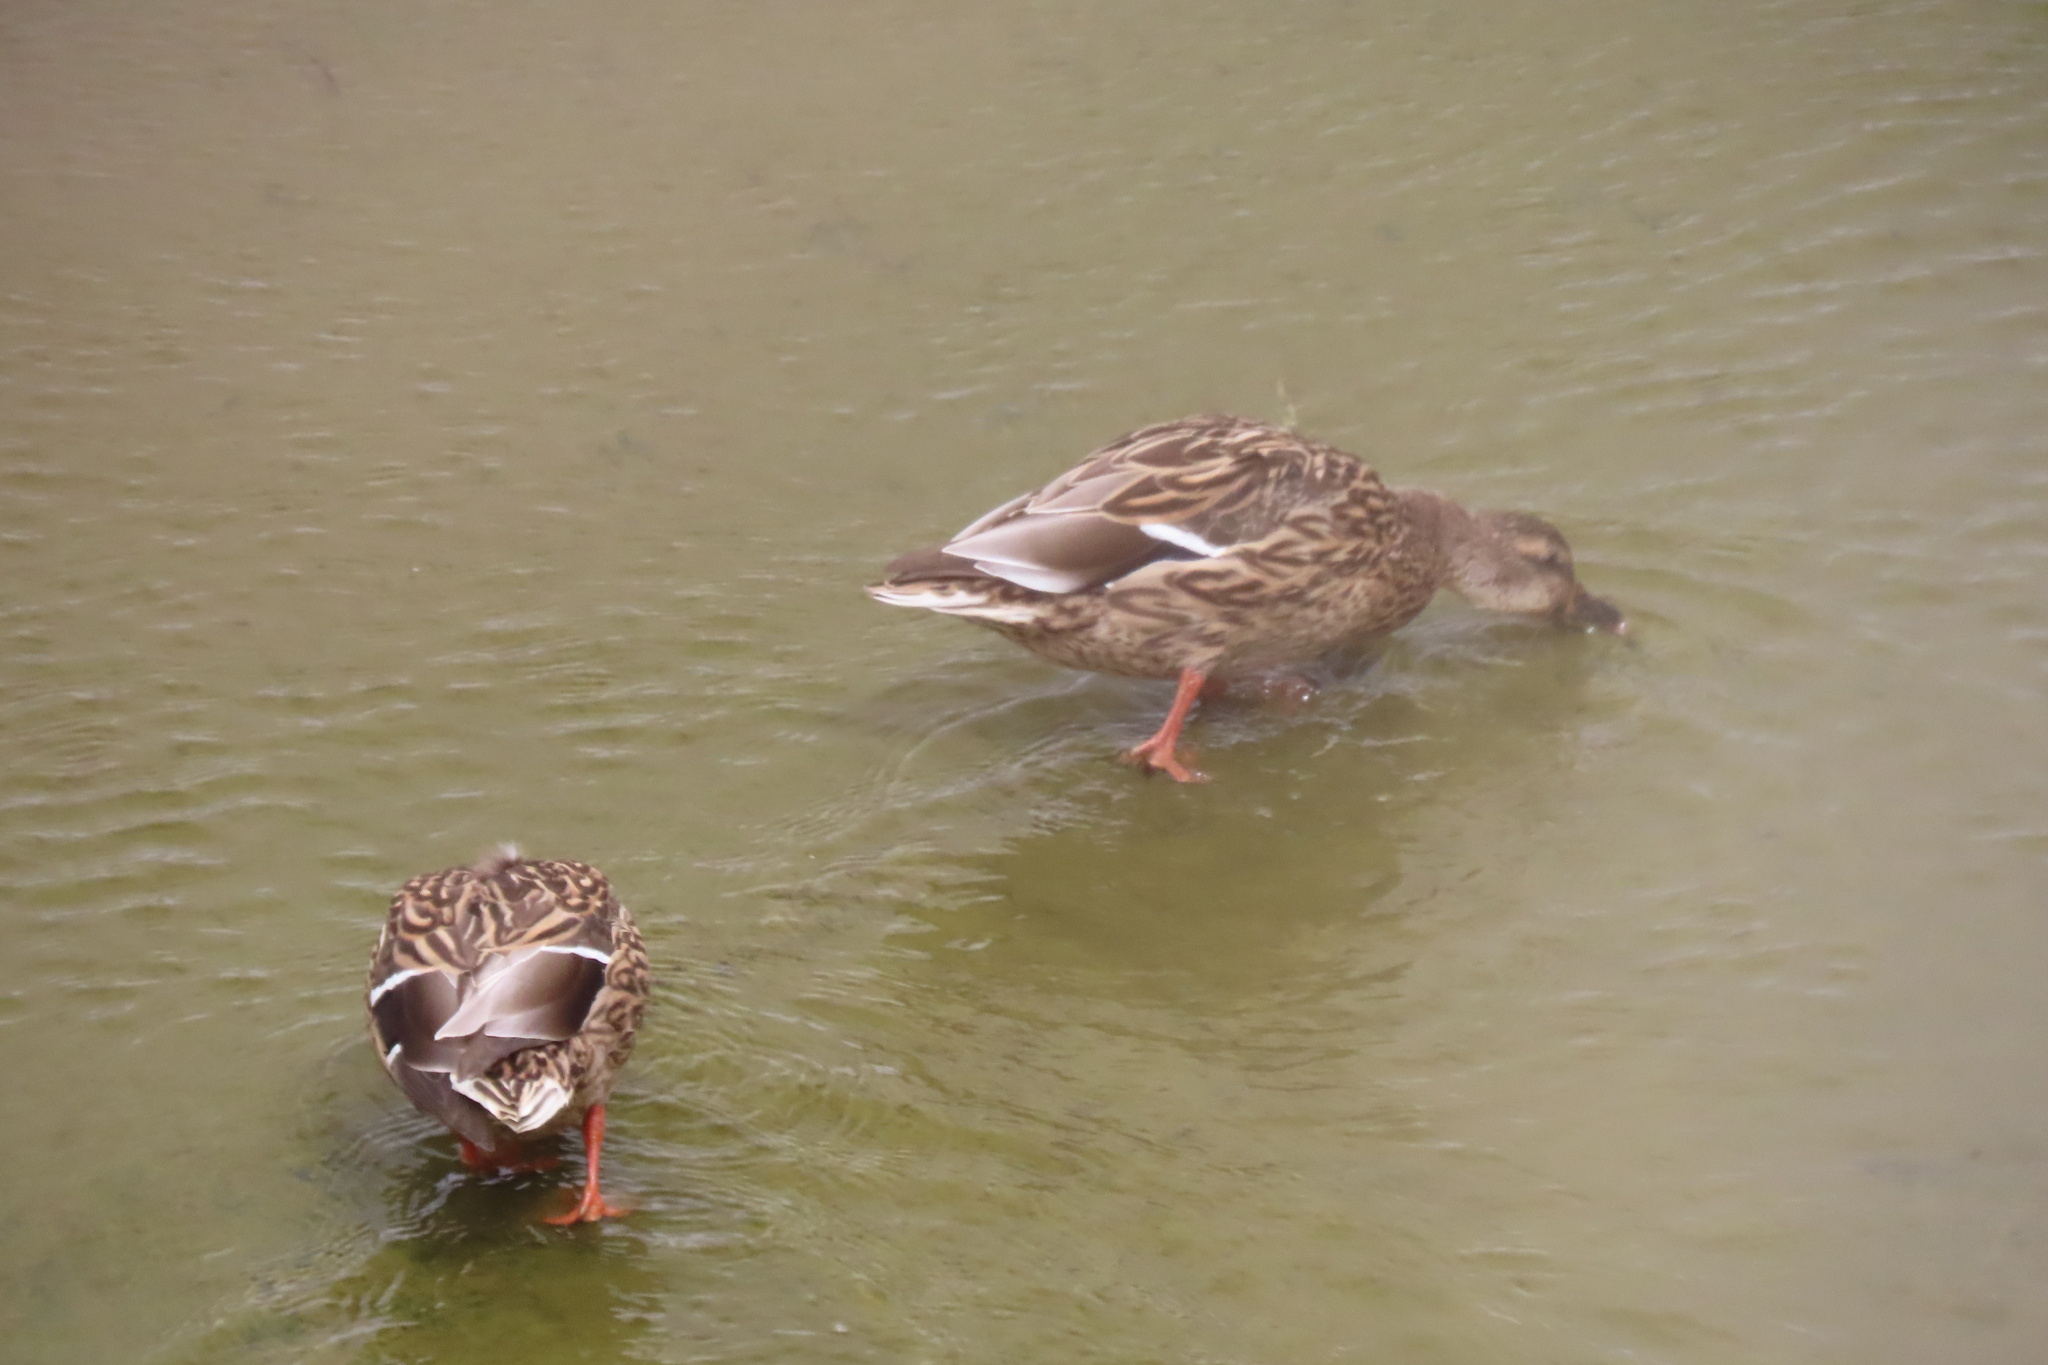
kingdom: Animalia
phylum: Chordata
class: Aves
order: Anseriformes
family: Anatidae
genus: Anas
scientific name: Anas platyrhynchos
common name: Mallard
